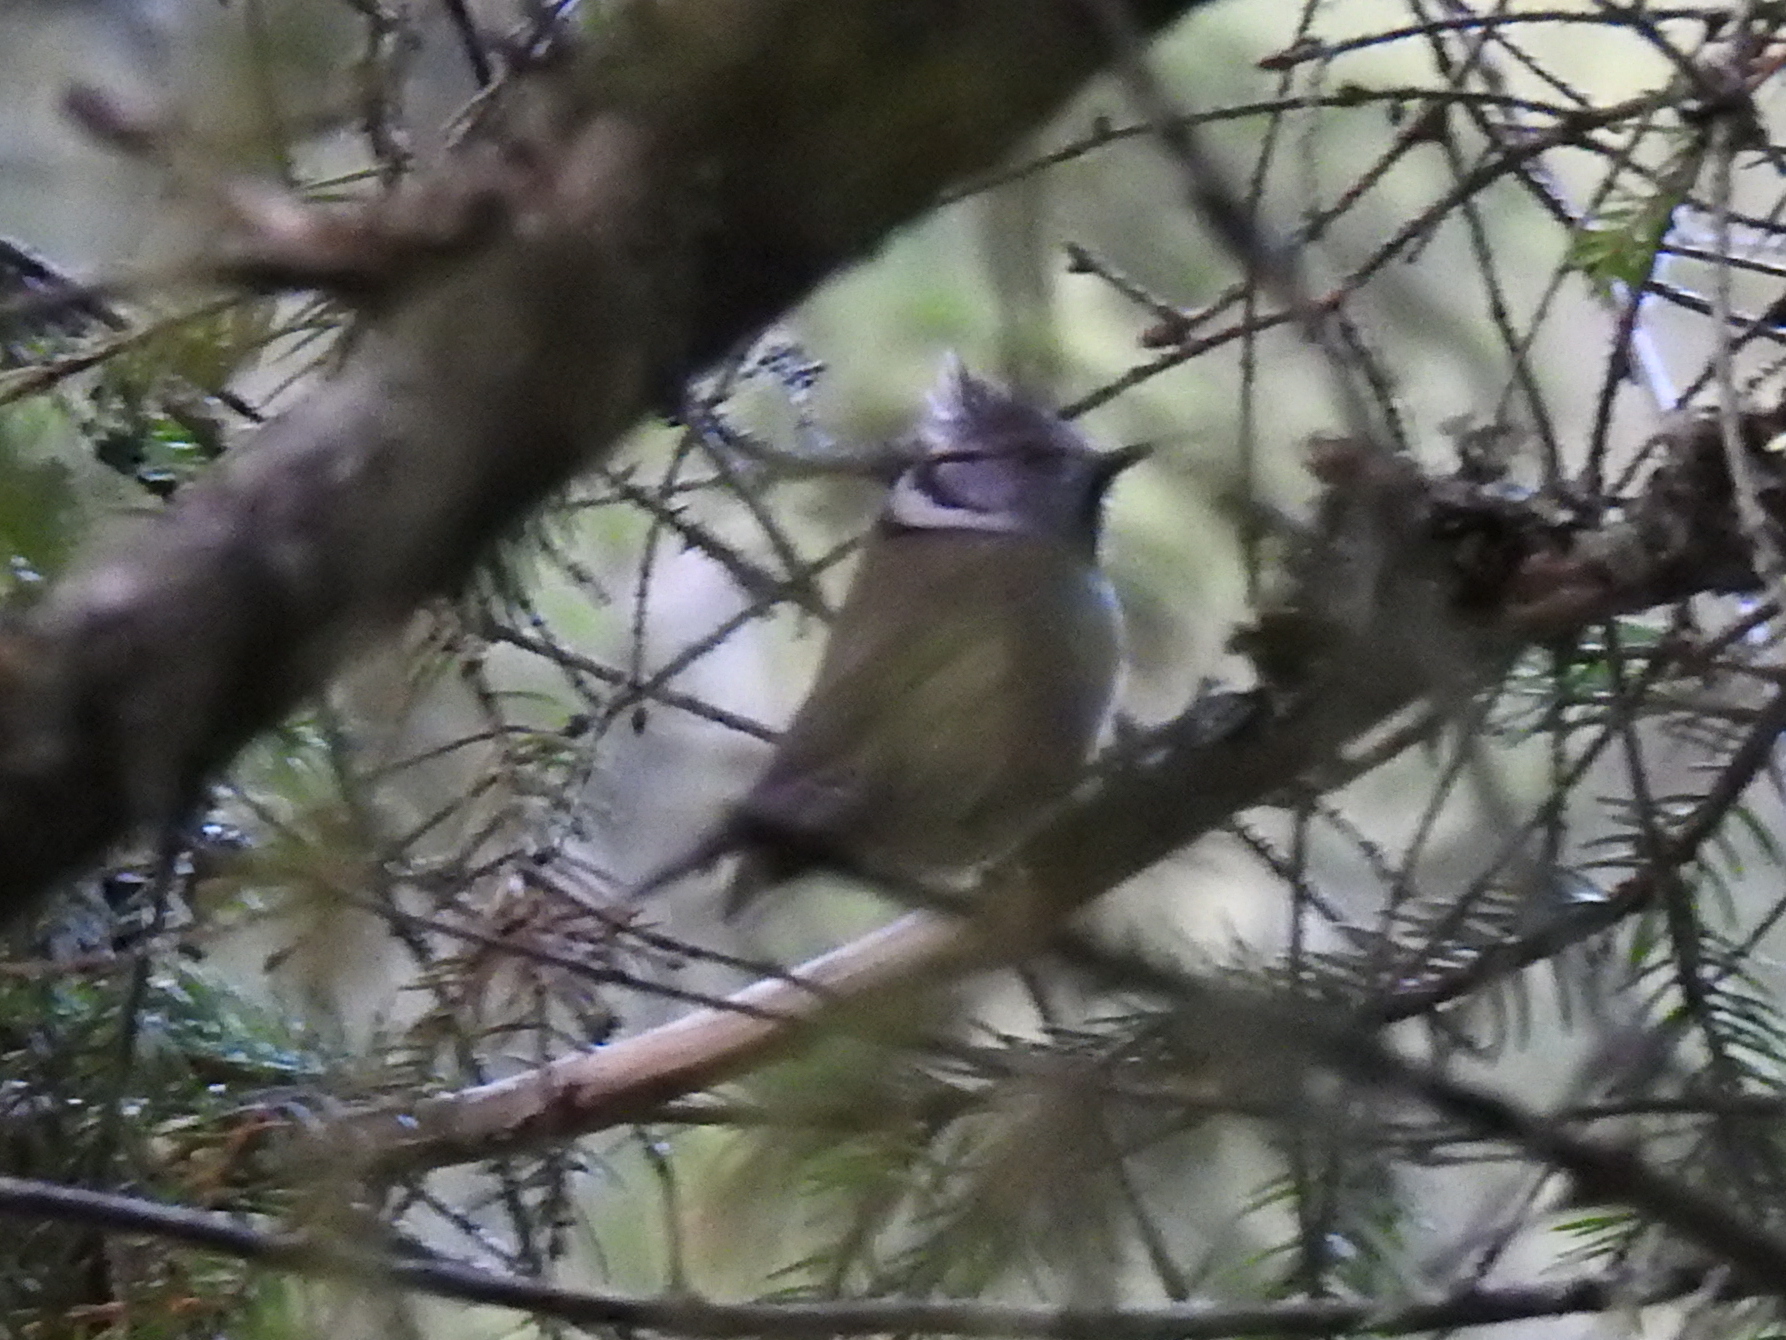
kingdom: Animalia
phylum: Chordata
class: Aves
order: Passeriformes
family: Paridae
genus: Lophophanes
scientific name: Lophophanes cristatus
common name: European crested tit
